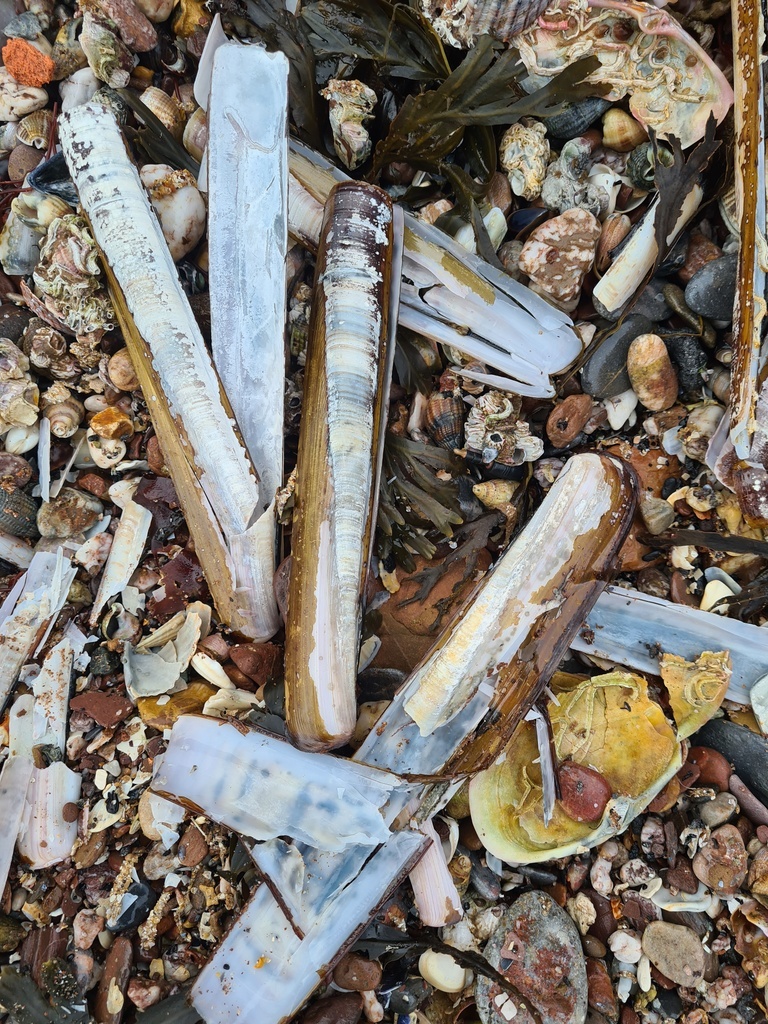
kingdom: Animalia
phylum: Mollusca
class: Bivalvia
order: Adapedonta
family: Pharidae
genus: Ensis
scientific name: Ensis siliqua
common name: Pod razor shell
